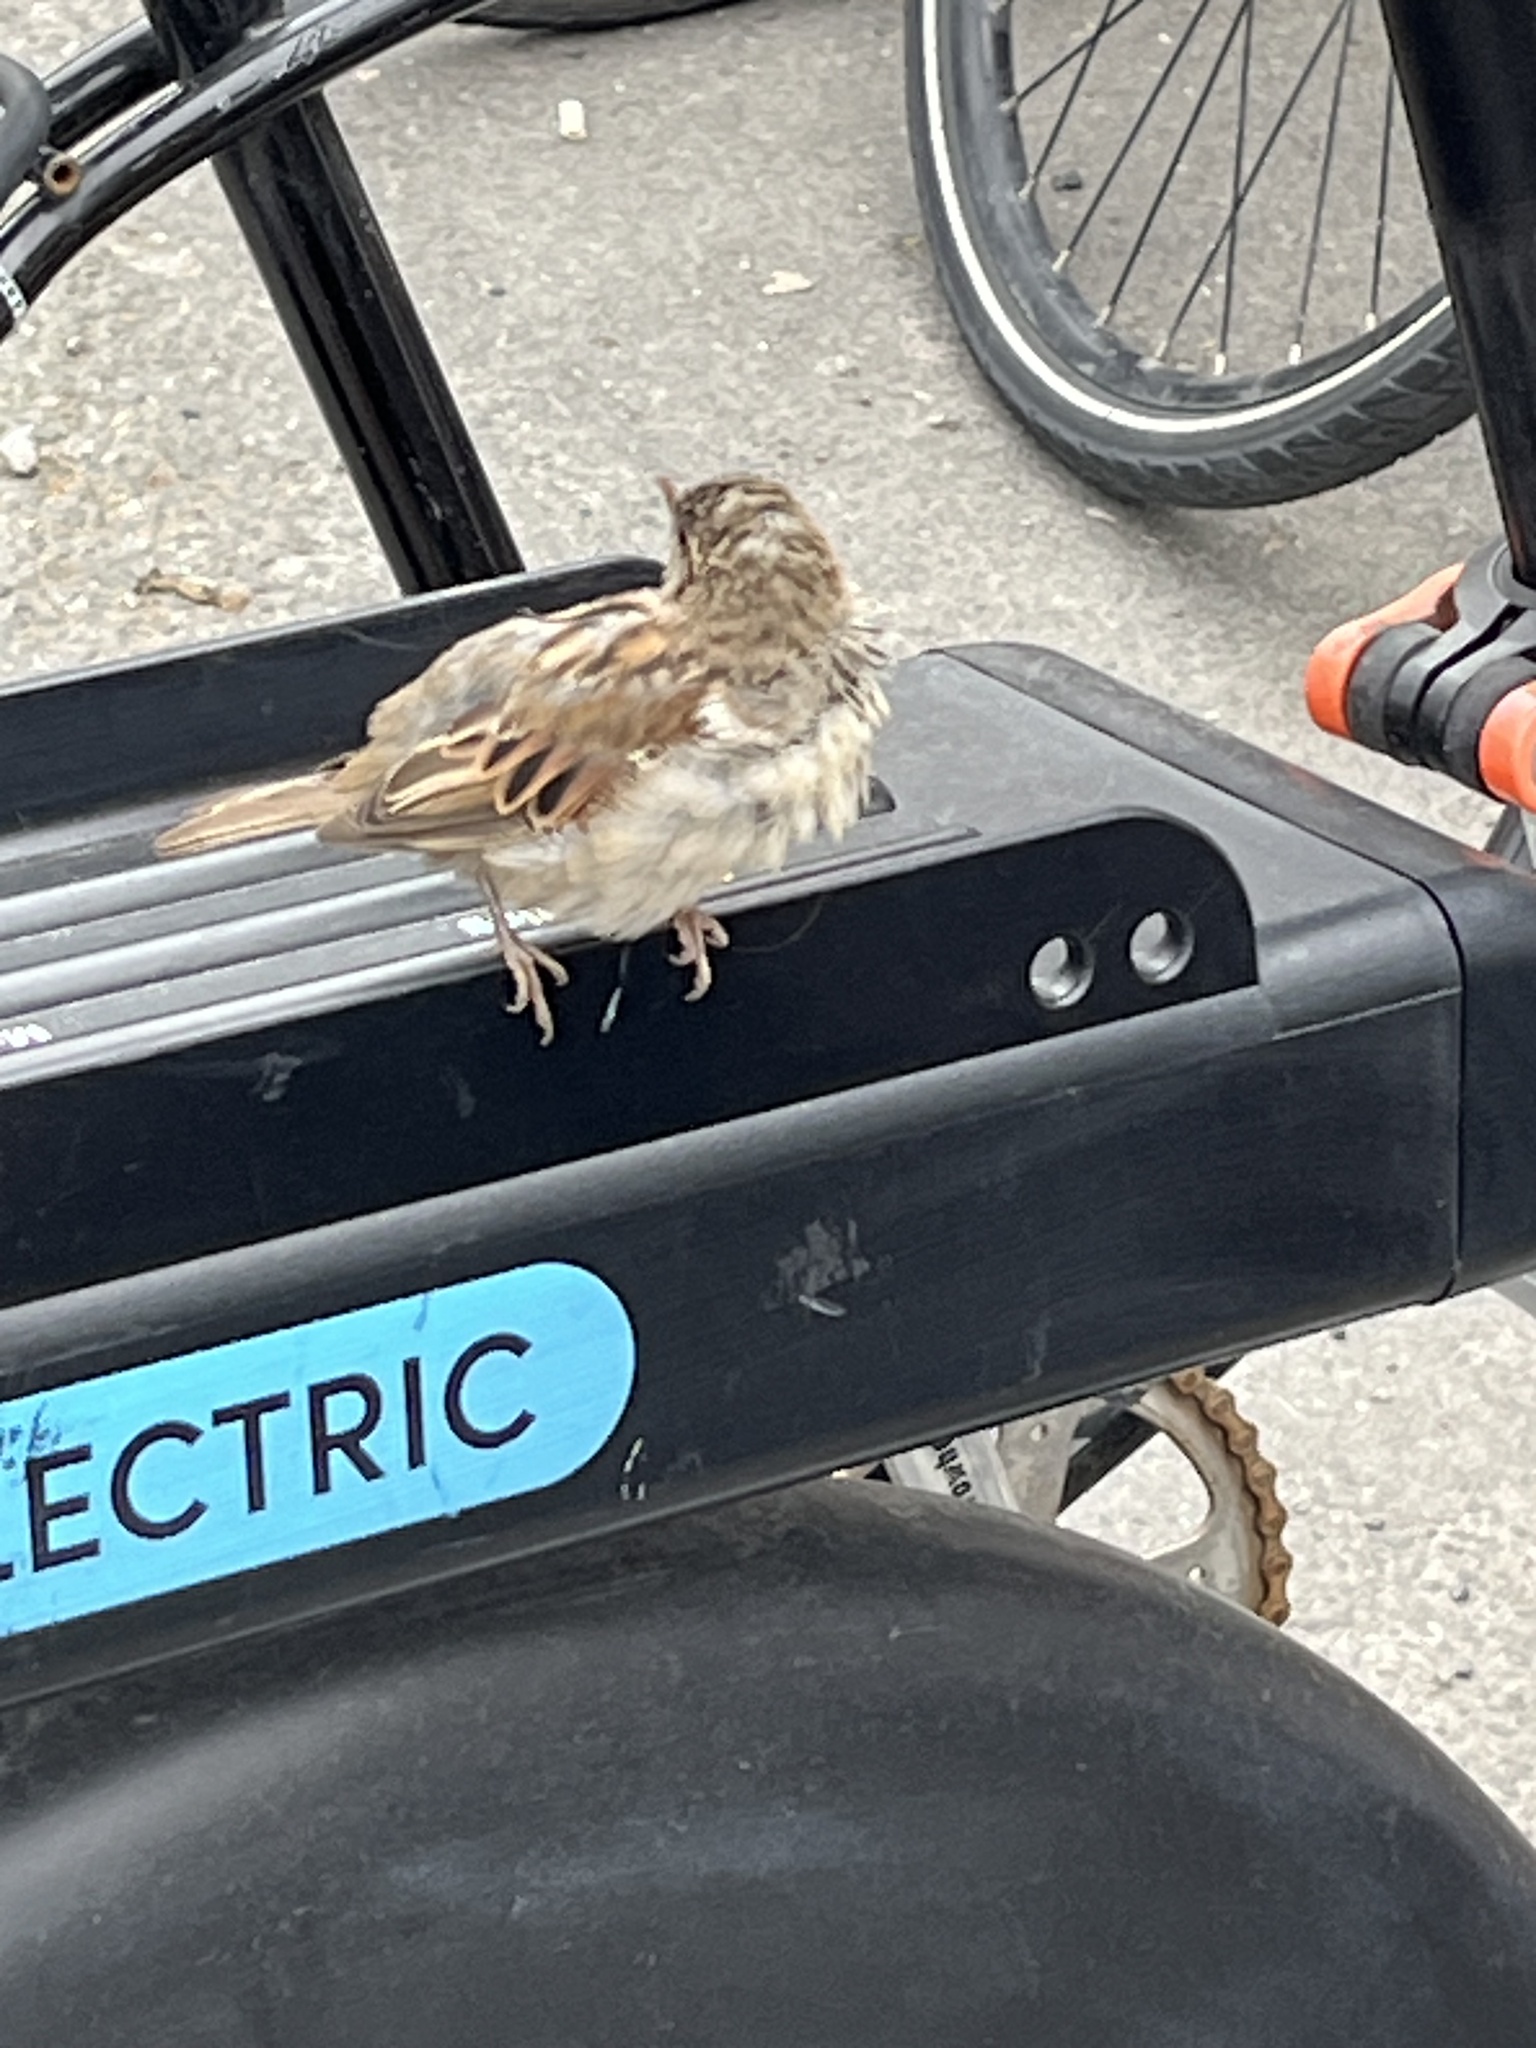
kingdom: Animalia
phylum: Chordata
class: Aves
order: Passeriformes
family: Passeridae
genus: Passer
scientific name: Passer domesticus
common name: House sparrow
